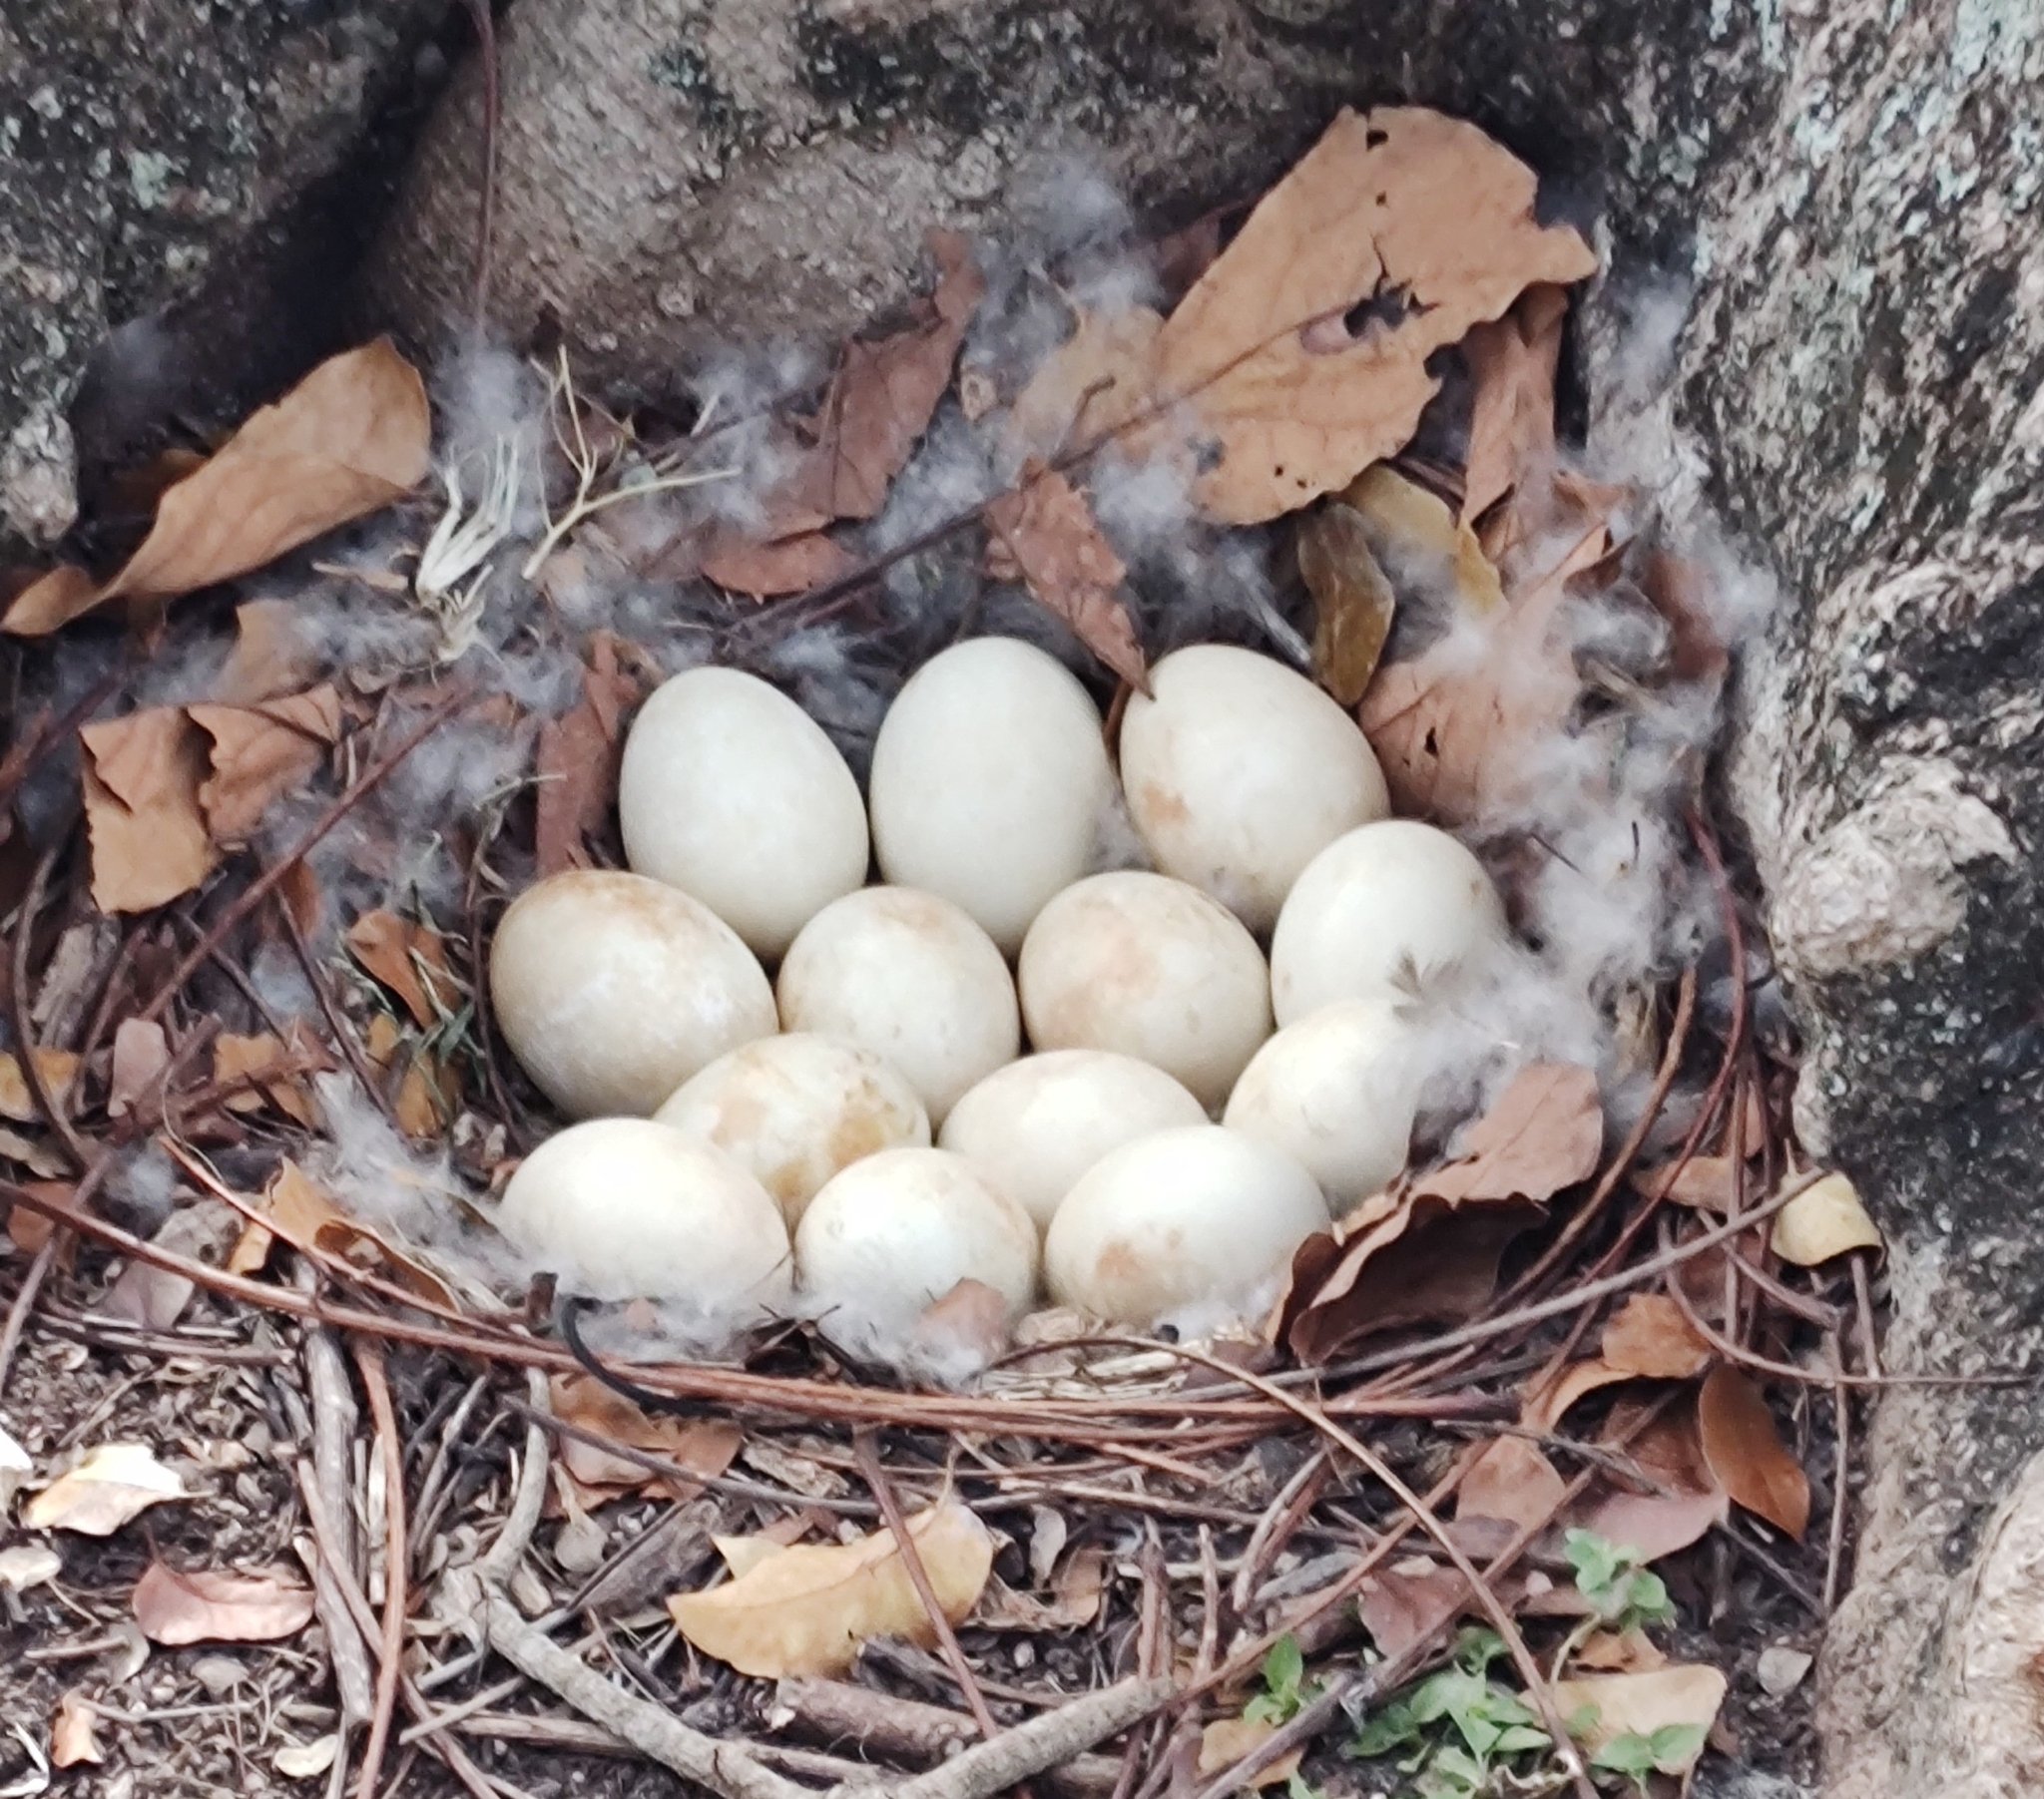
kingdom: Animalia
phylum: Chordata
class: Aves
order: Anseriformes
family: Anatidae
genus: Cairina
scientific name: Cairina moschata
